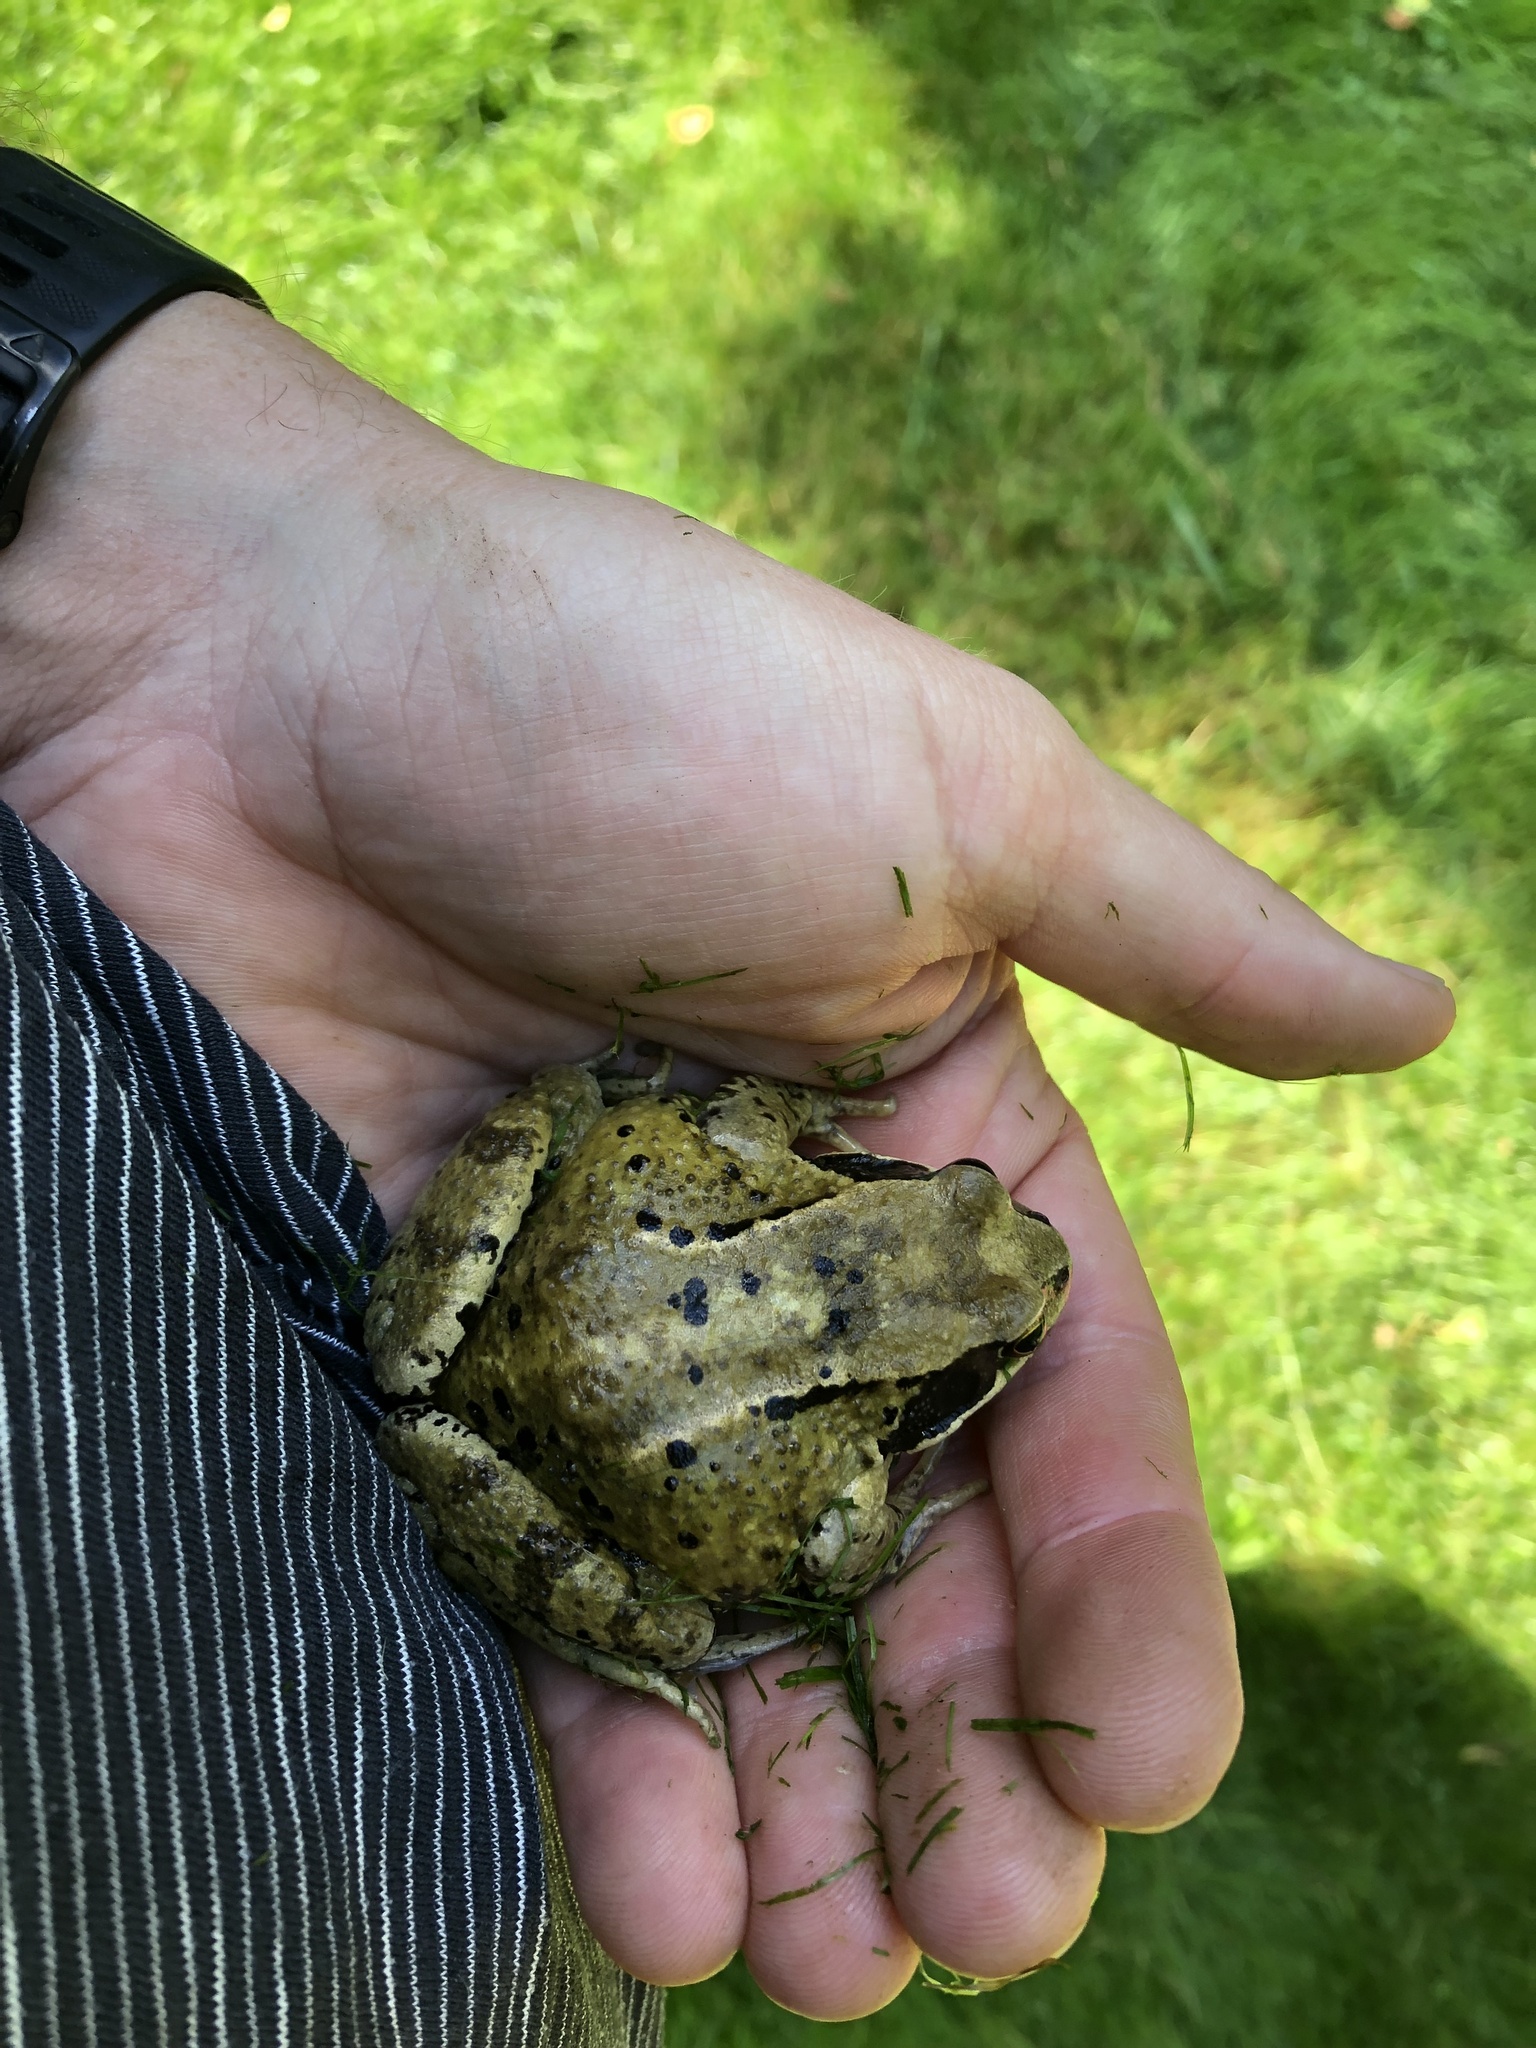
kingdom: Animalia
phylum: Chordata
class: Amphibia
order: Anura
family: Ranidae
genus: Rana
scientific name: Rana temporaria
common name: Common frog
